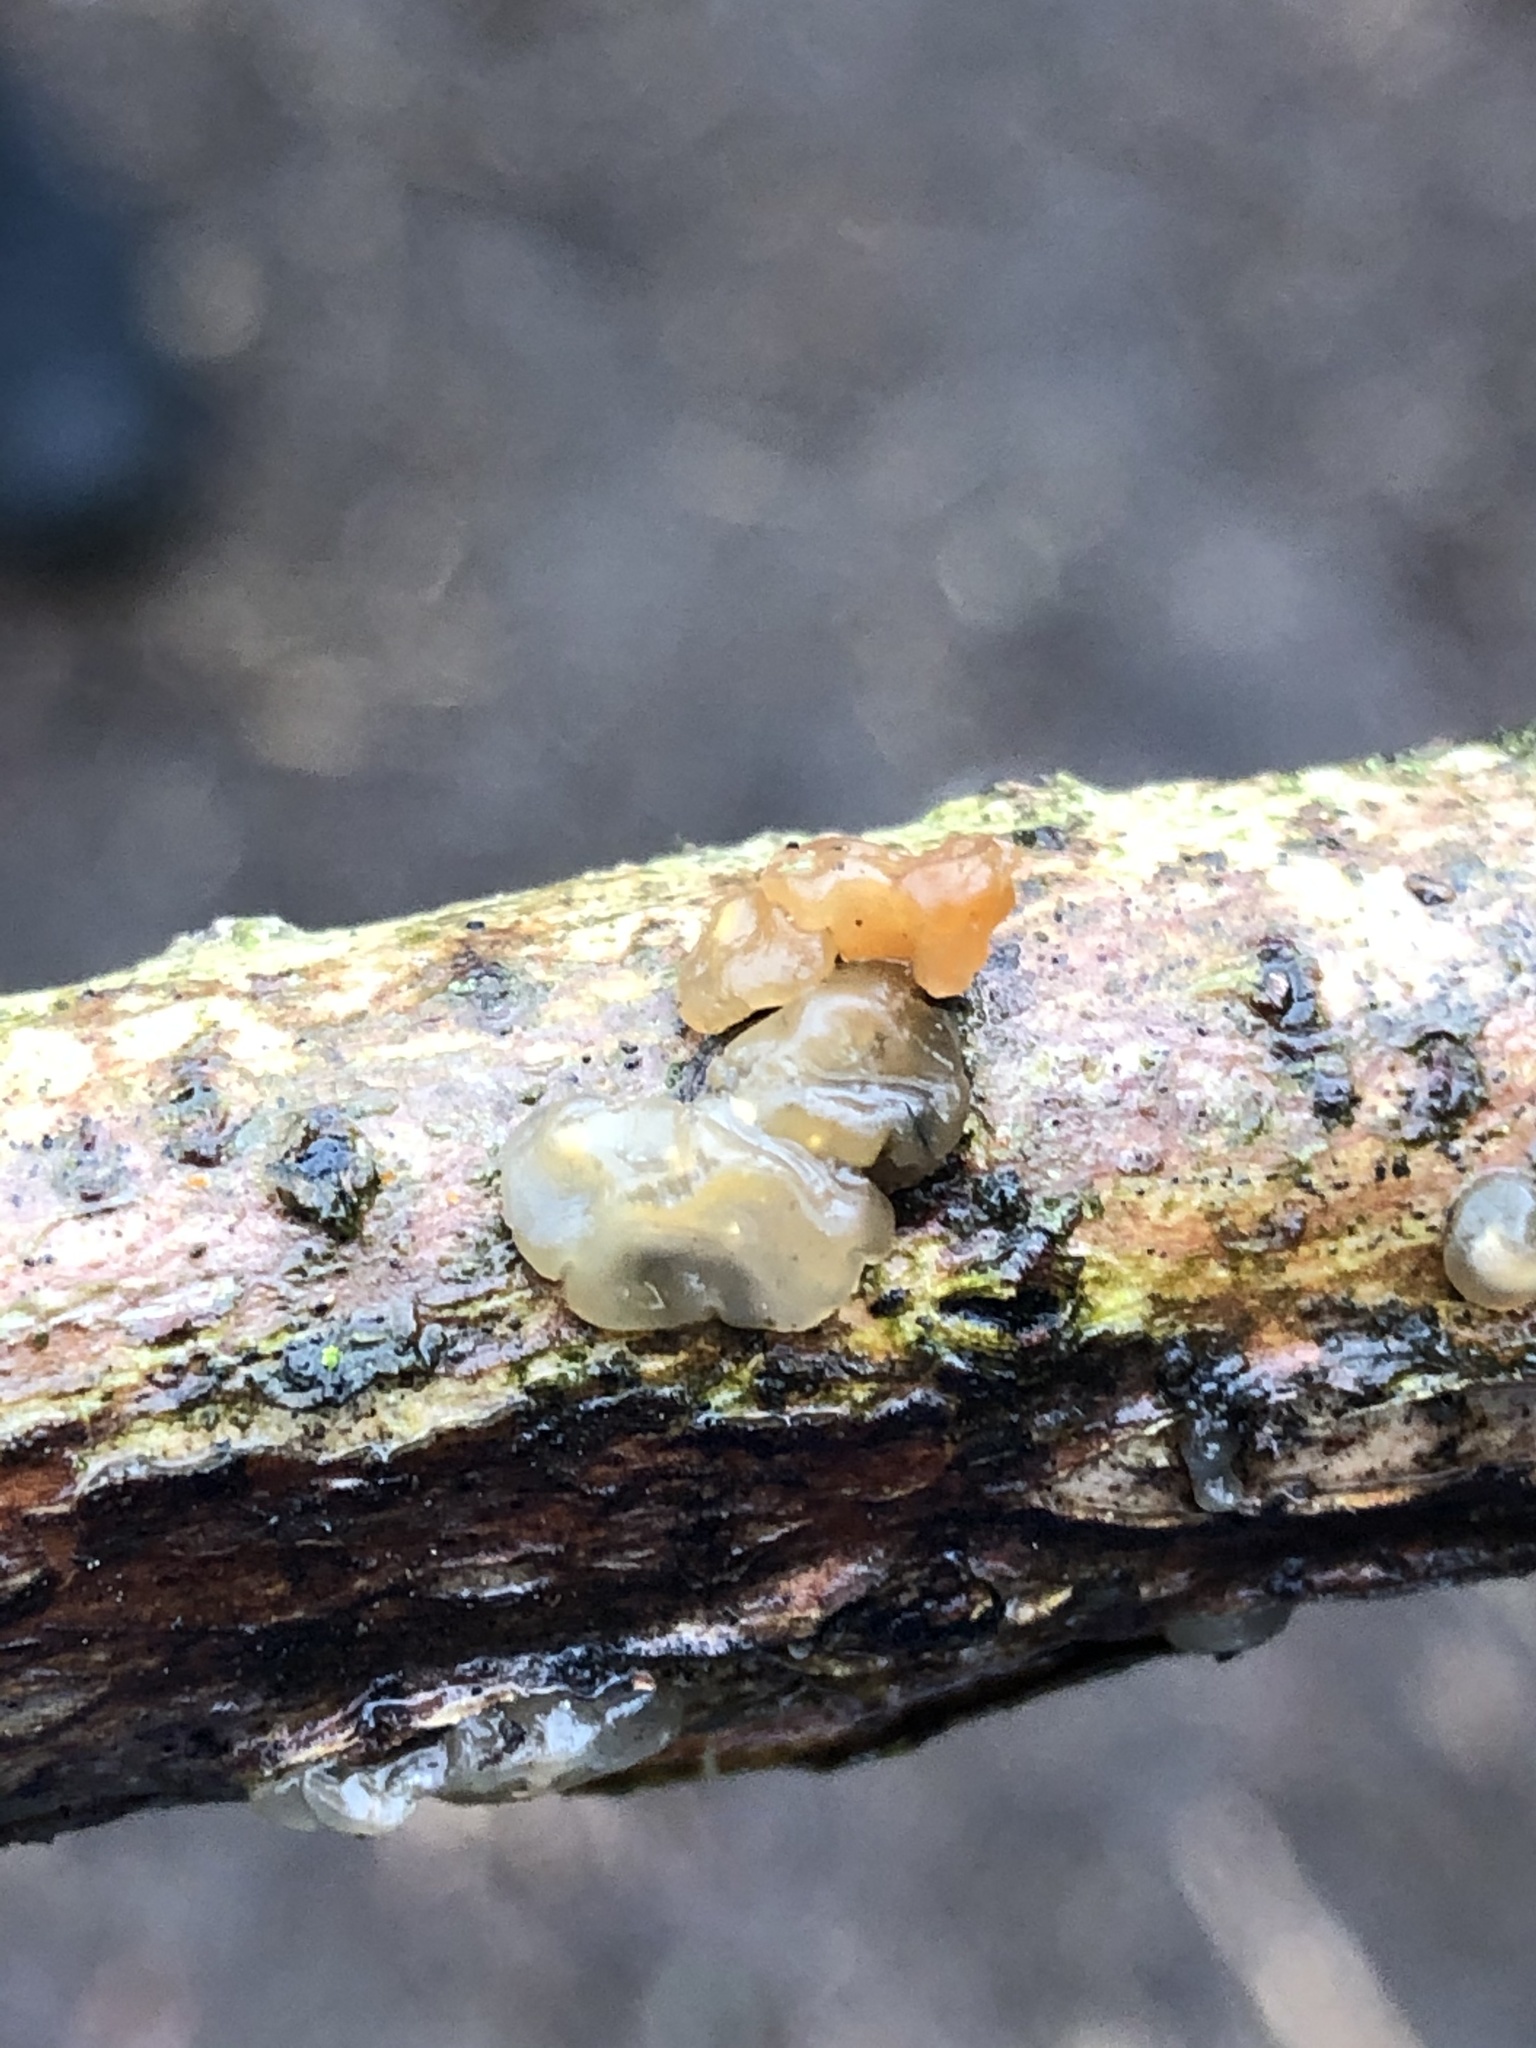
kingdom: Fungi
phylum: Basidiomycota
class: Agaricomycetes
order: Auriculariales
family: Hyaloriaceae
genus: Myxarium
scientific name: Myxarium nucleatum
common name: Crystal brain fungus
